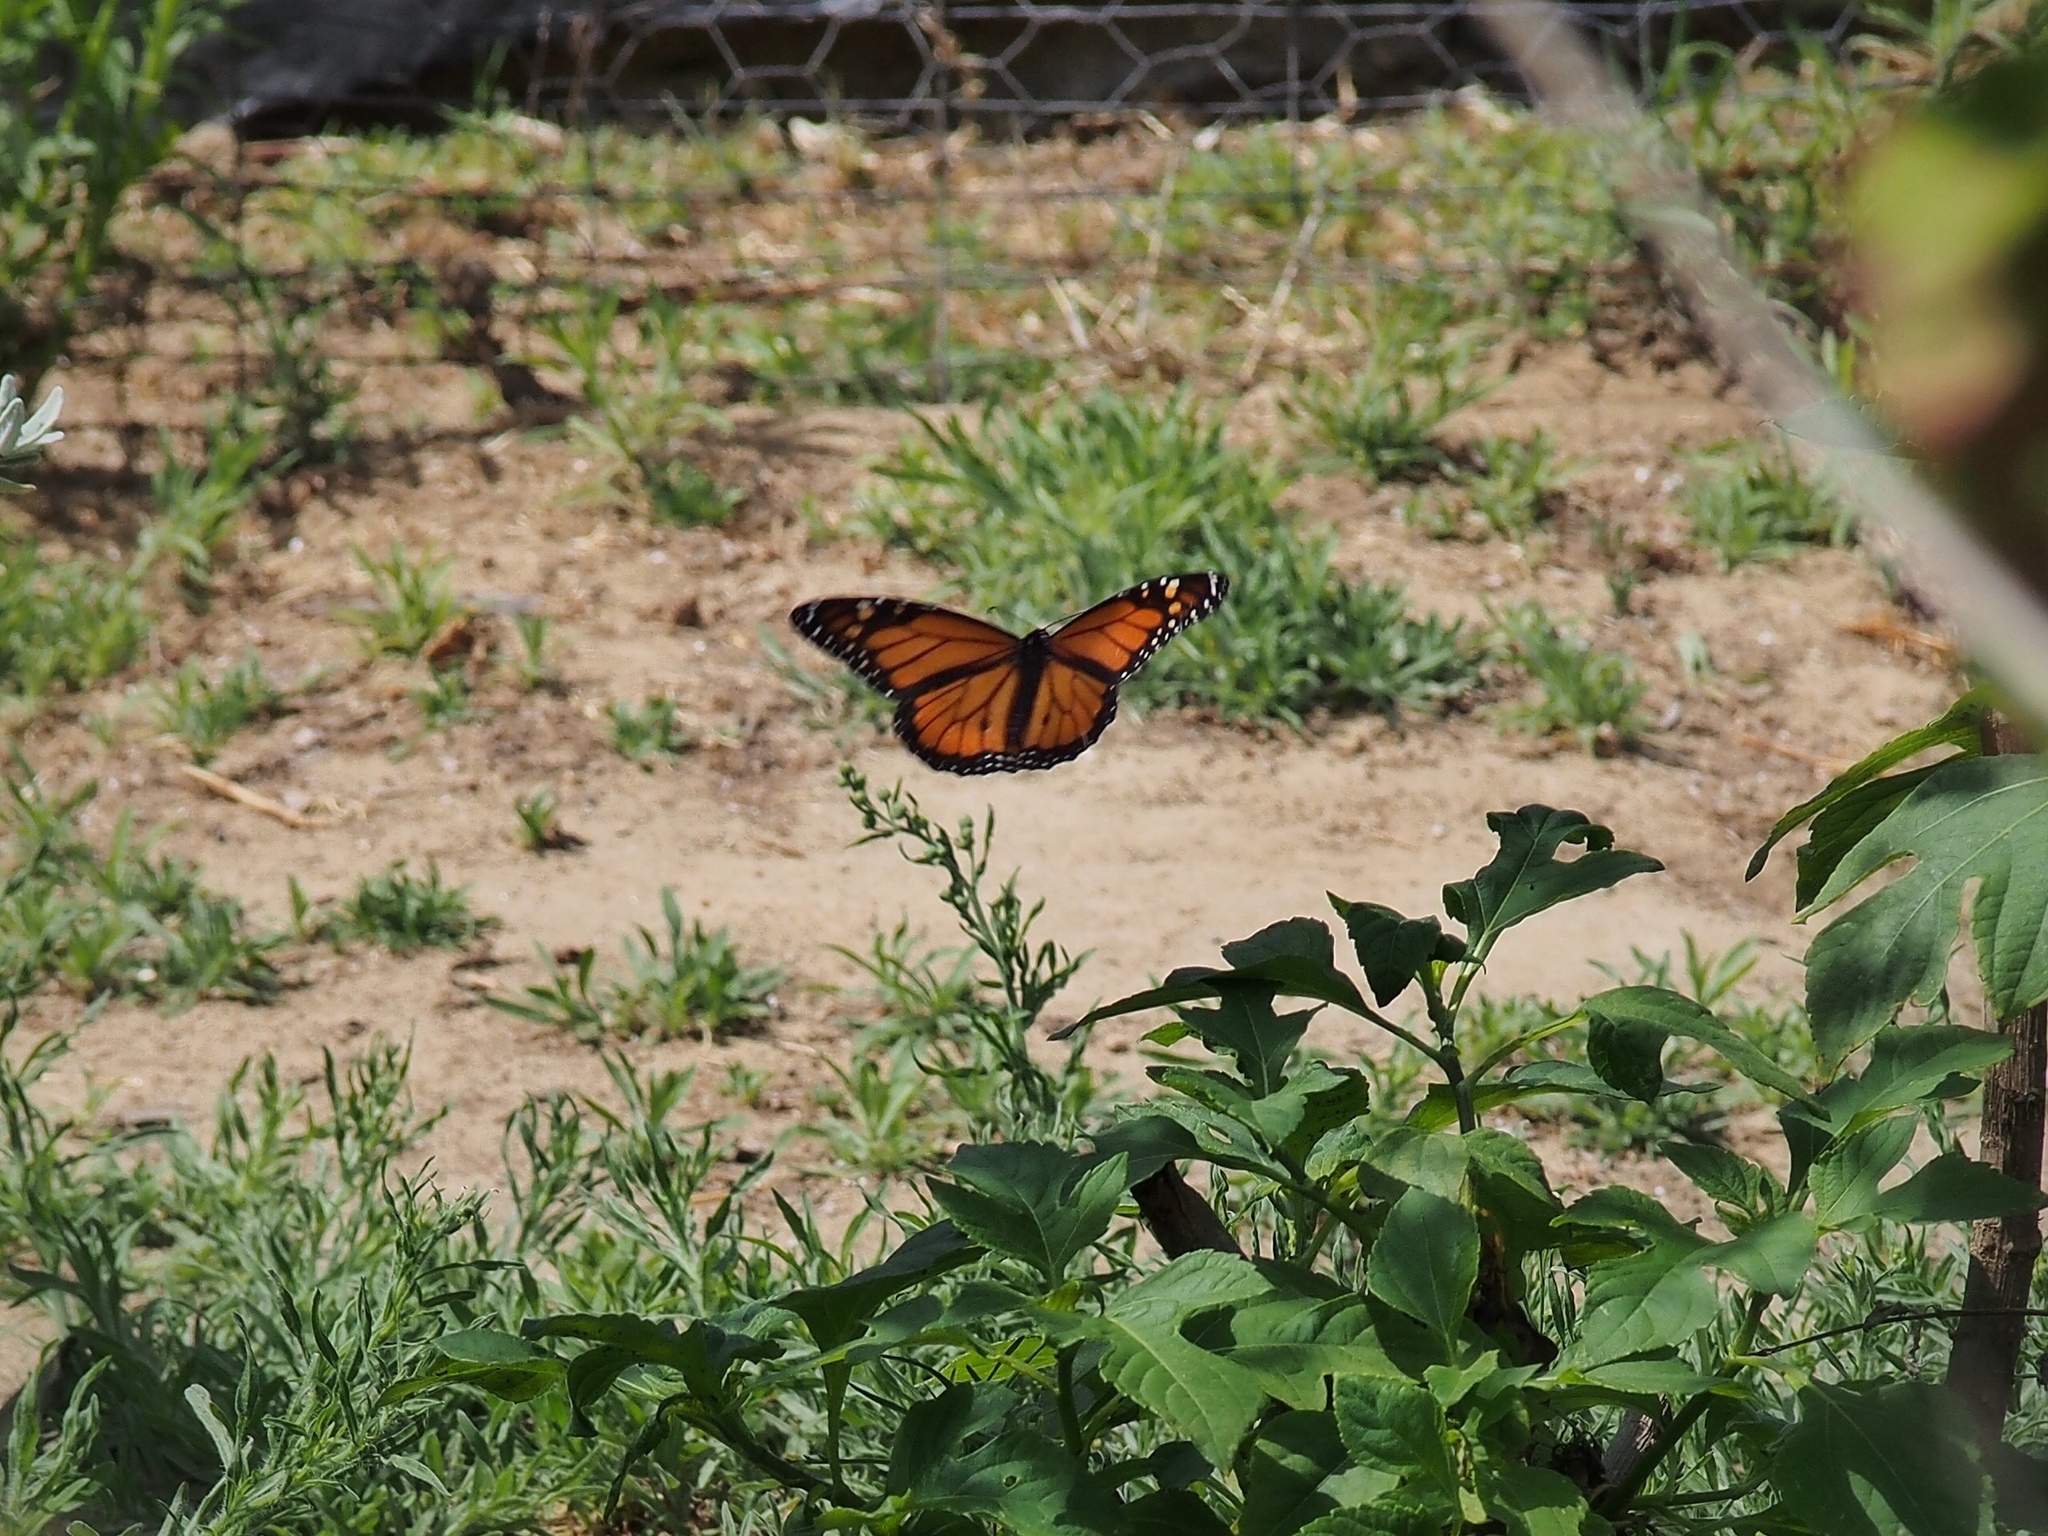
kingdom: Animalia
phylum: Arthropoda
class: Insecta
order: Lepidoptera
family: Nymphalidae
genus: Danaus
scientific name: Danaus plexippus
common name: Monarch
